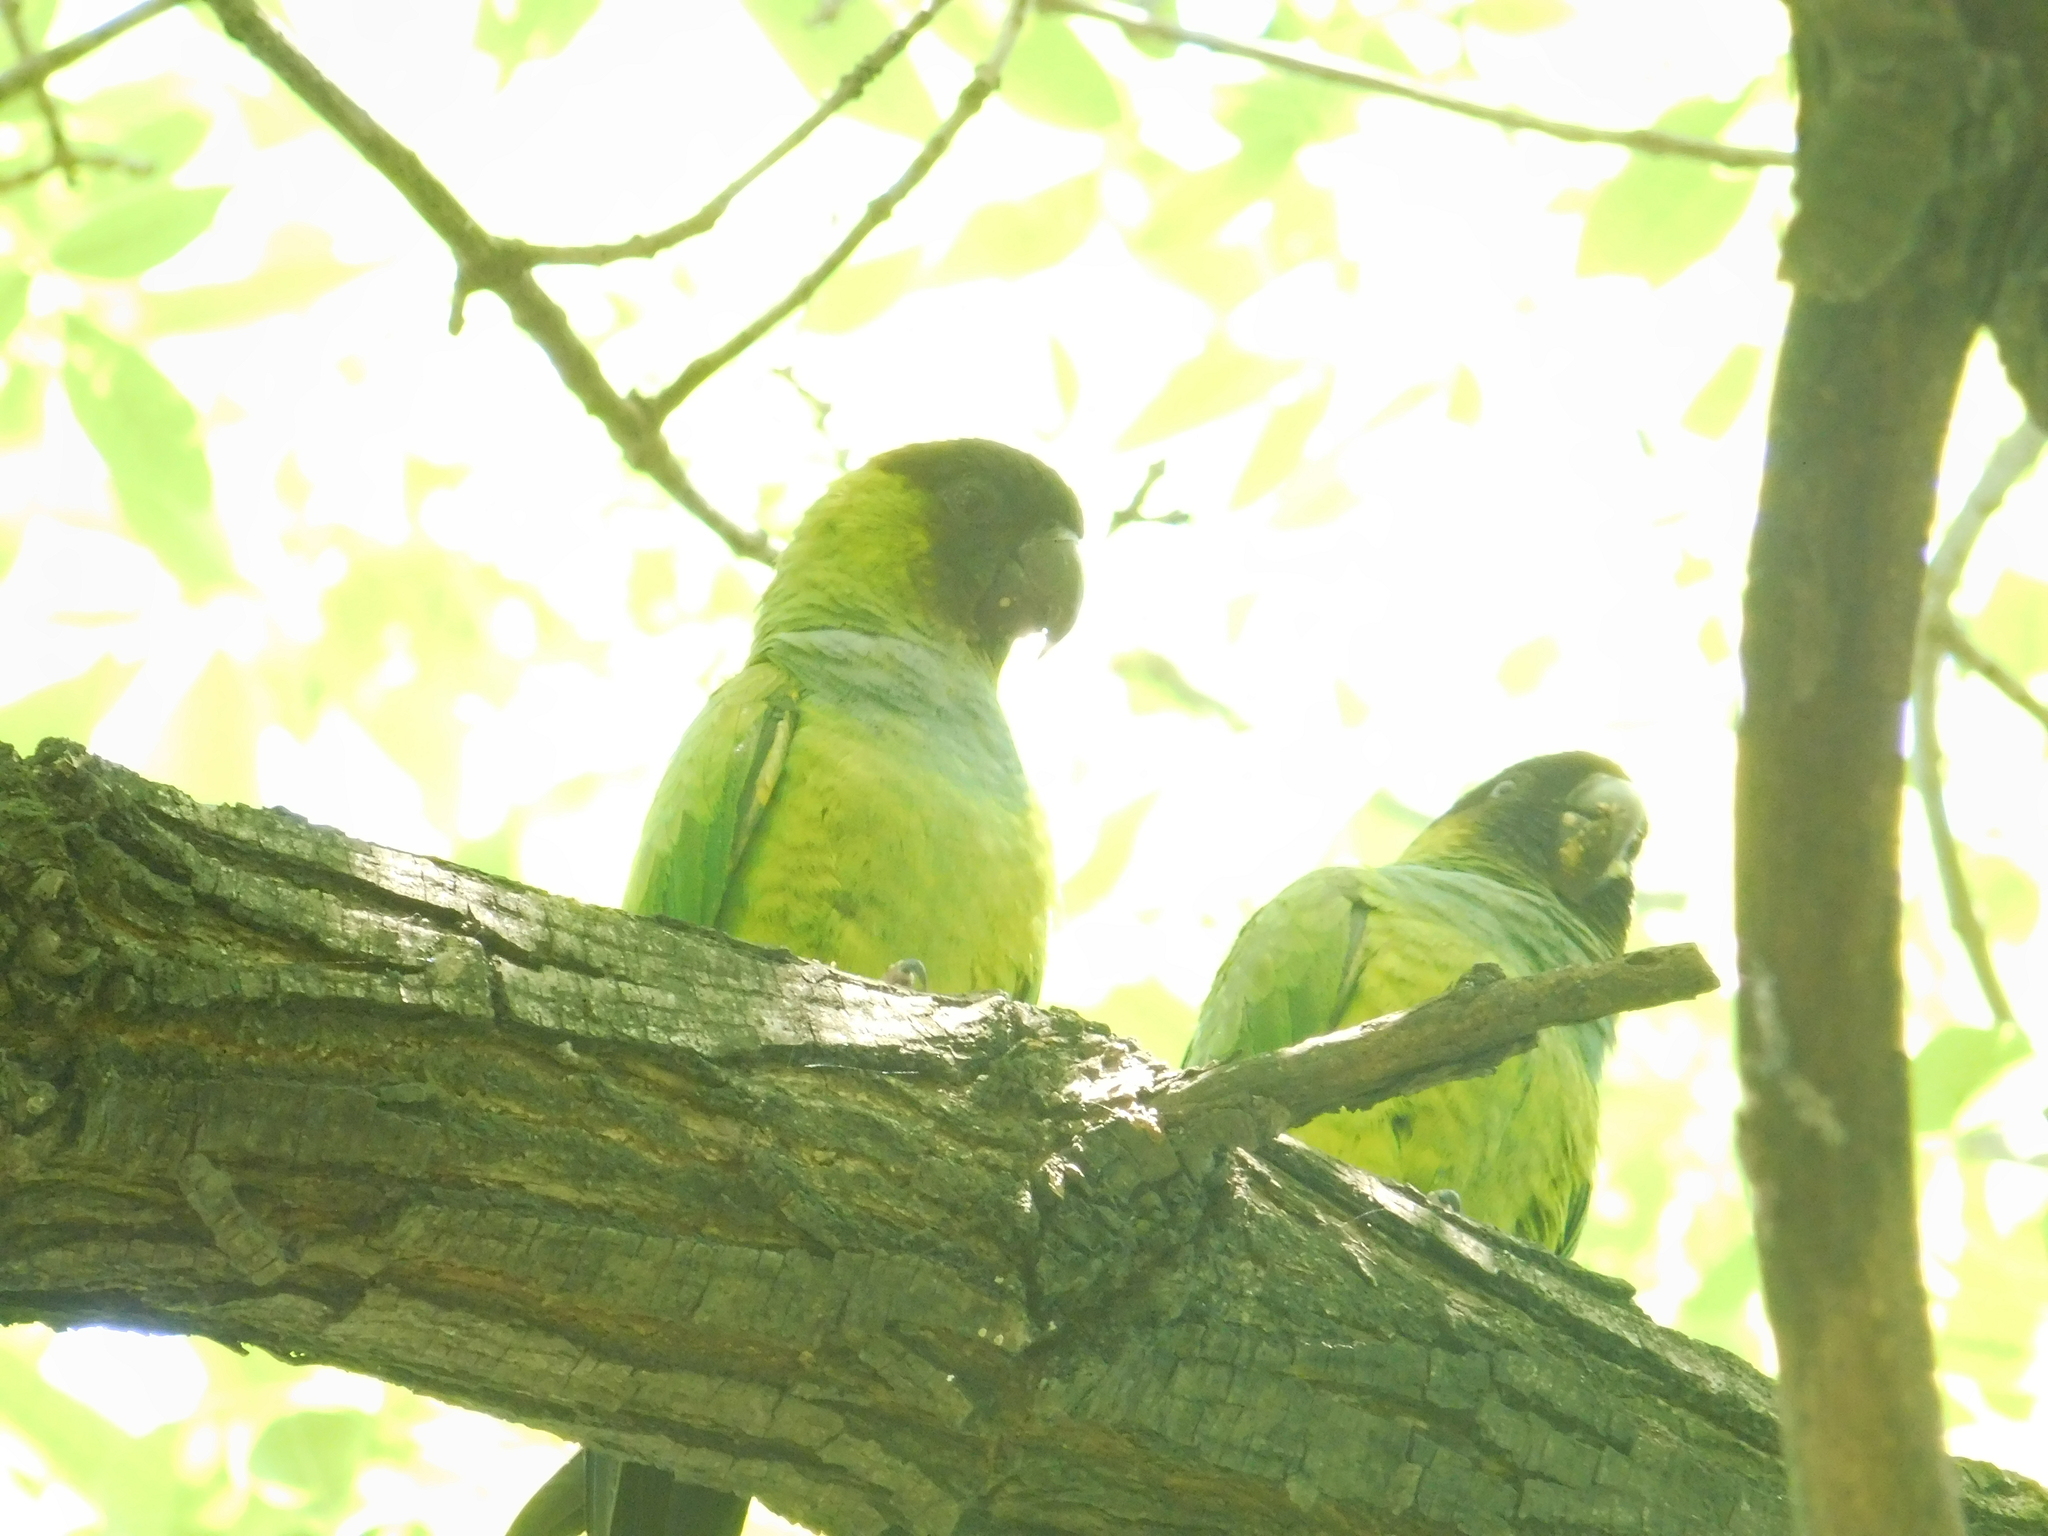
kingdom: Animalia
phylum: Chordata
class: Aves
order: Psittaciformes
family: Psittacidae
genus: Nandayus
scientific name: Nandayus nenday
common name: Nanday parakeet
